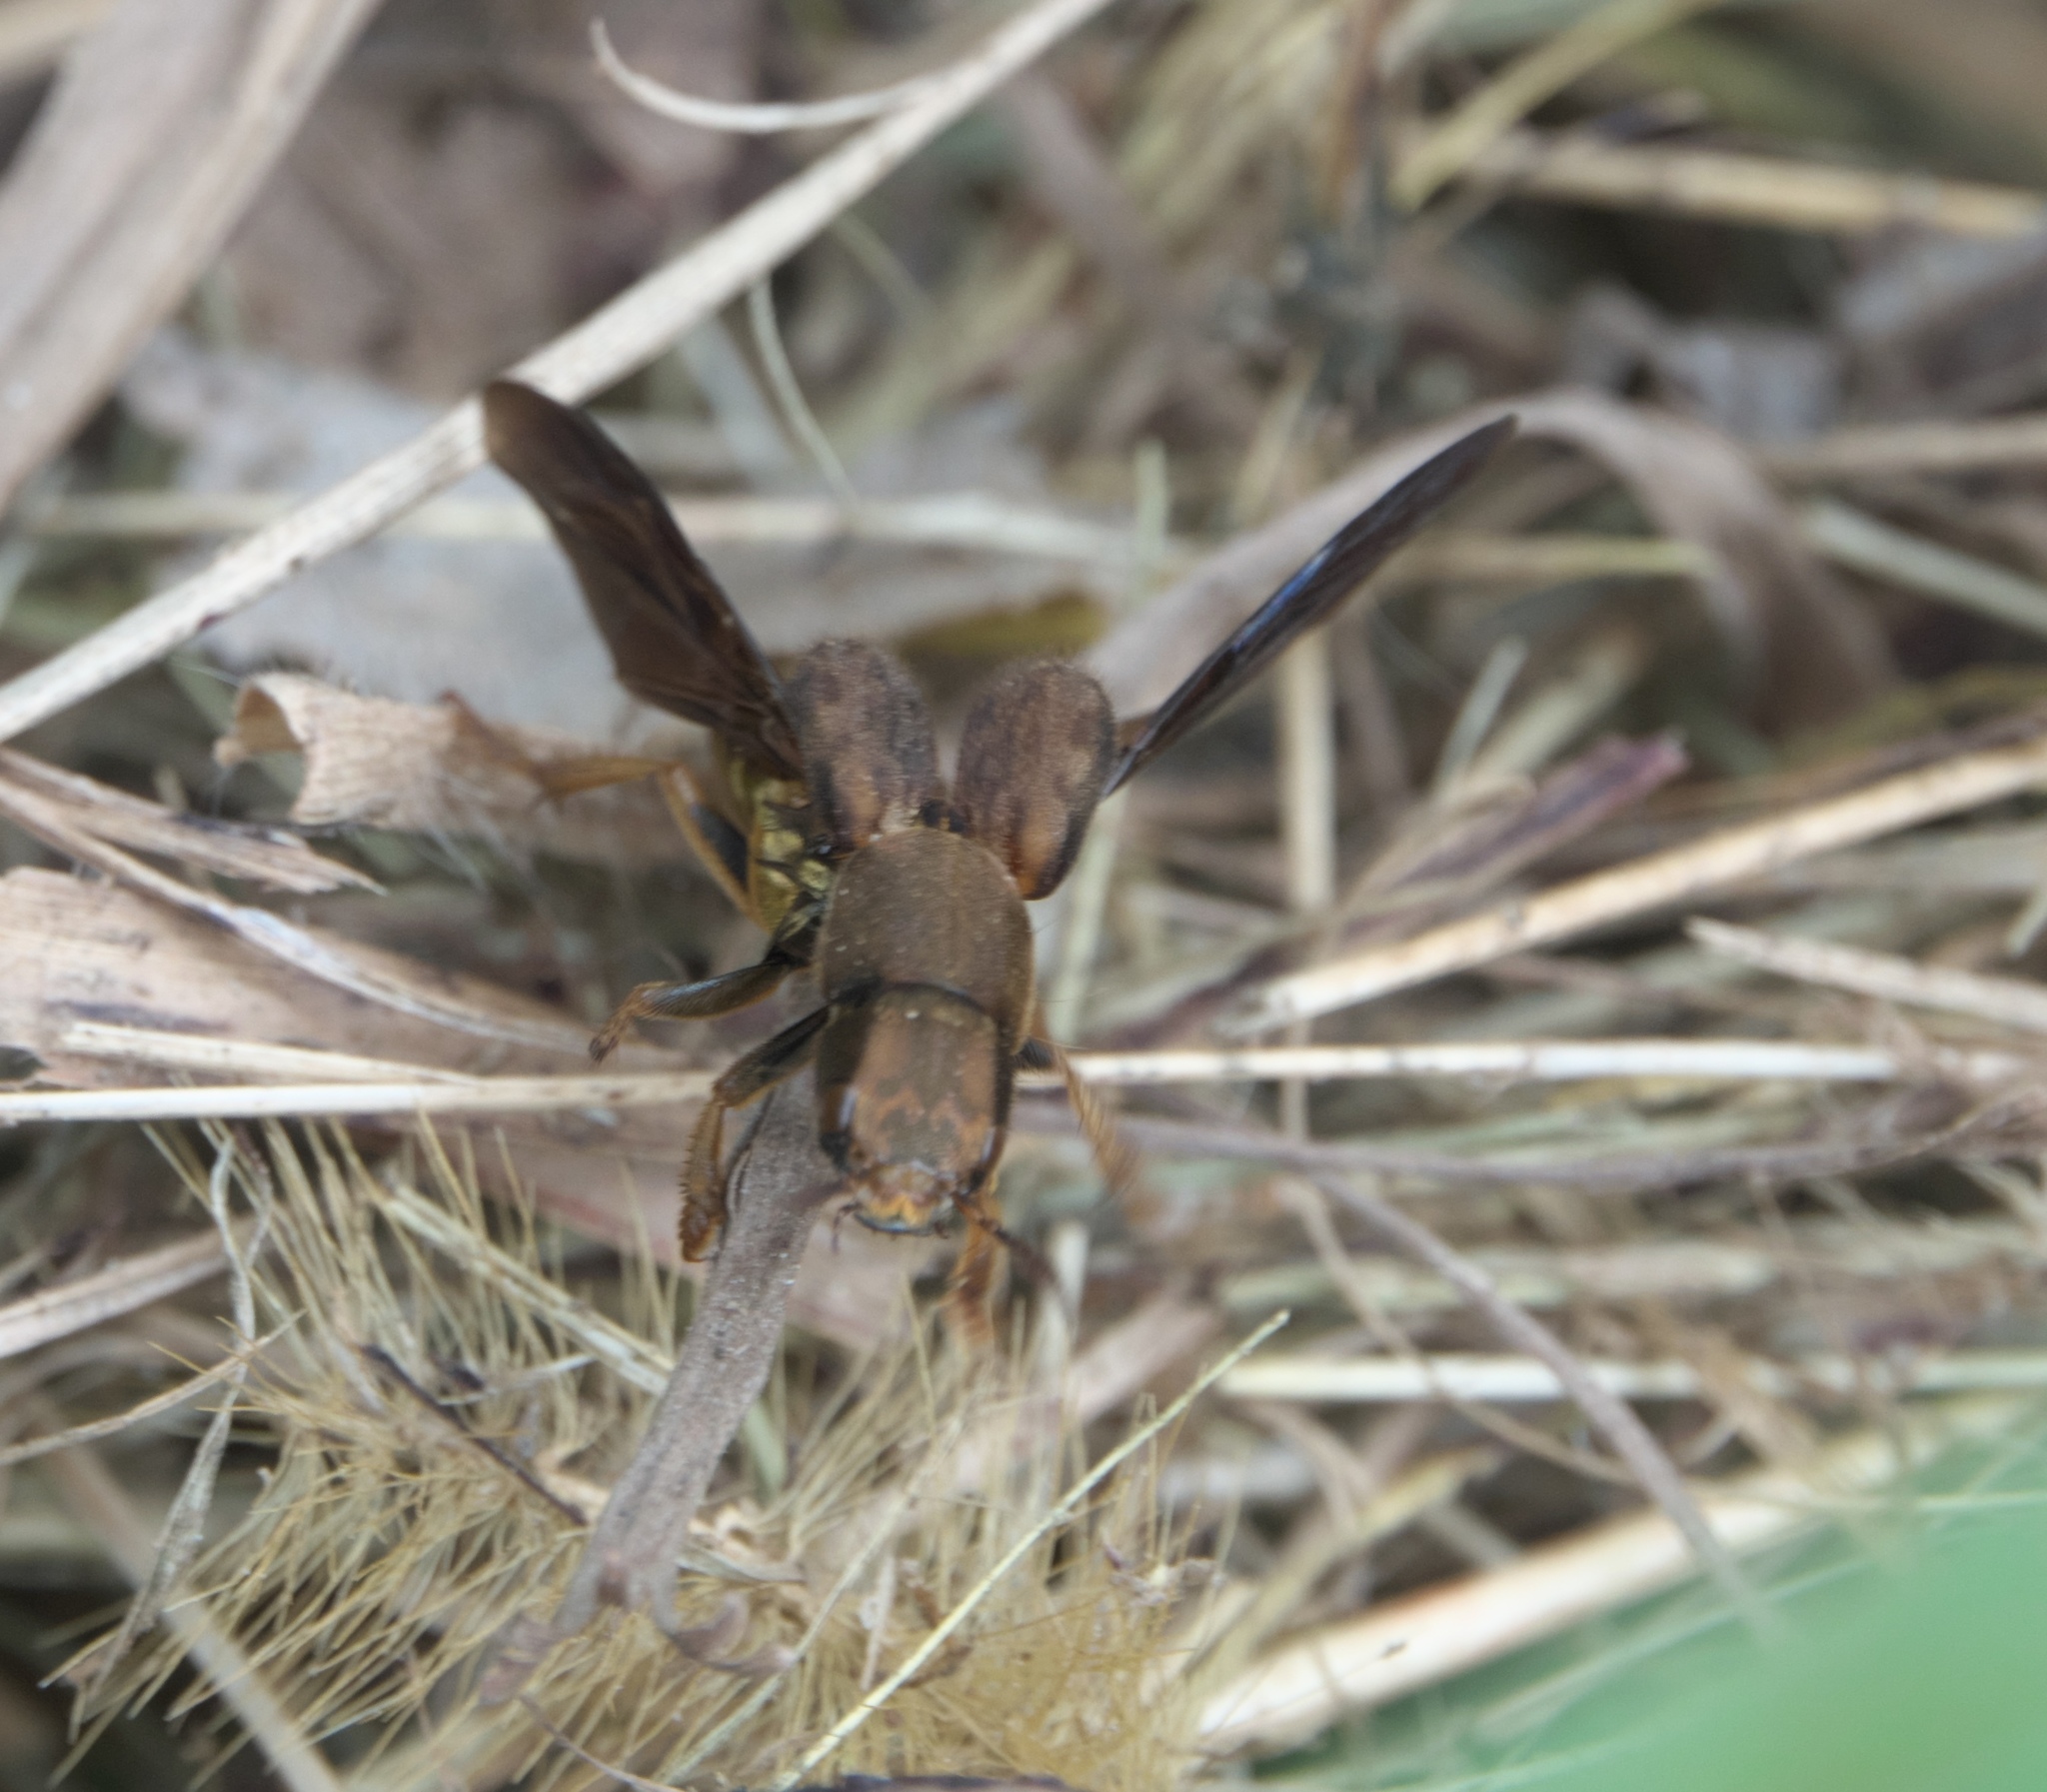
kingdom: Animalia
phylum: Arthropoda
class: Insecta
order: Coleoptera
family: Staphylinidae
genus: Platydracus
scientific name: Platydracus maculosus
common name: Brown rove beetle
